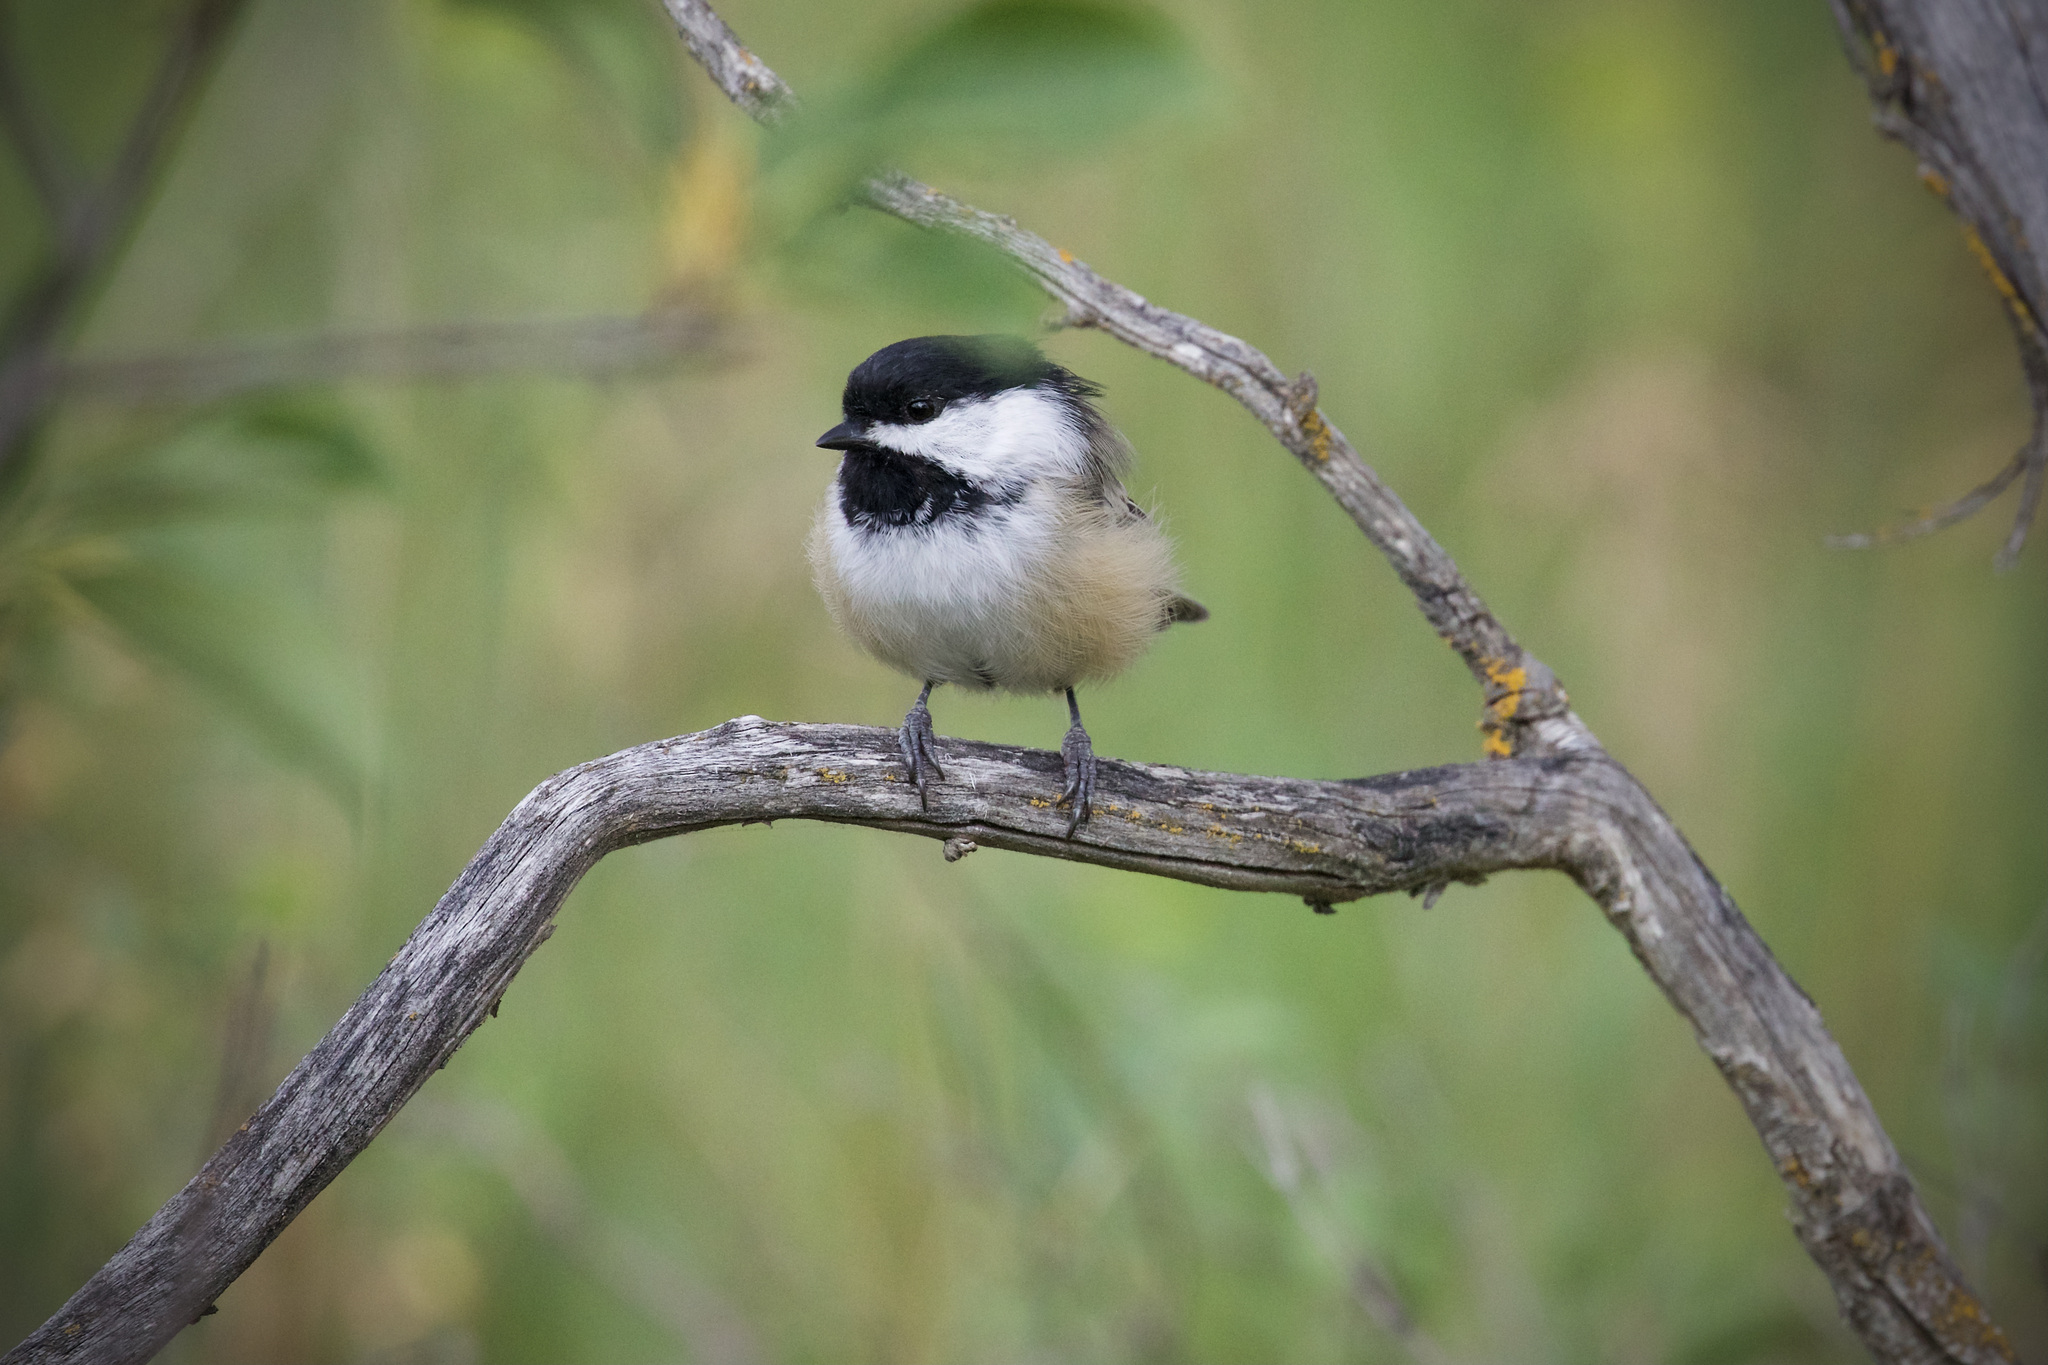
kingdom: Animalia
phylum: Chordata
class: Aves
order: Passeriformes
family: Paridae
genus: Poecile
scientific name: Poecile atricapillus
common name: Black-capped chickadee
